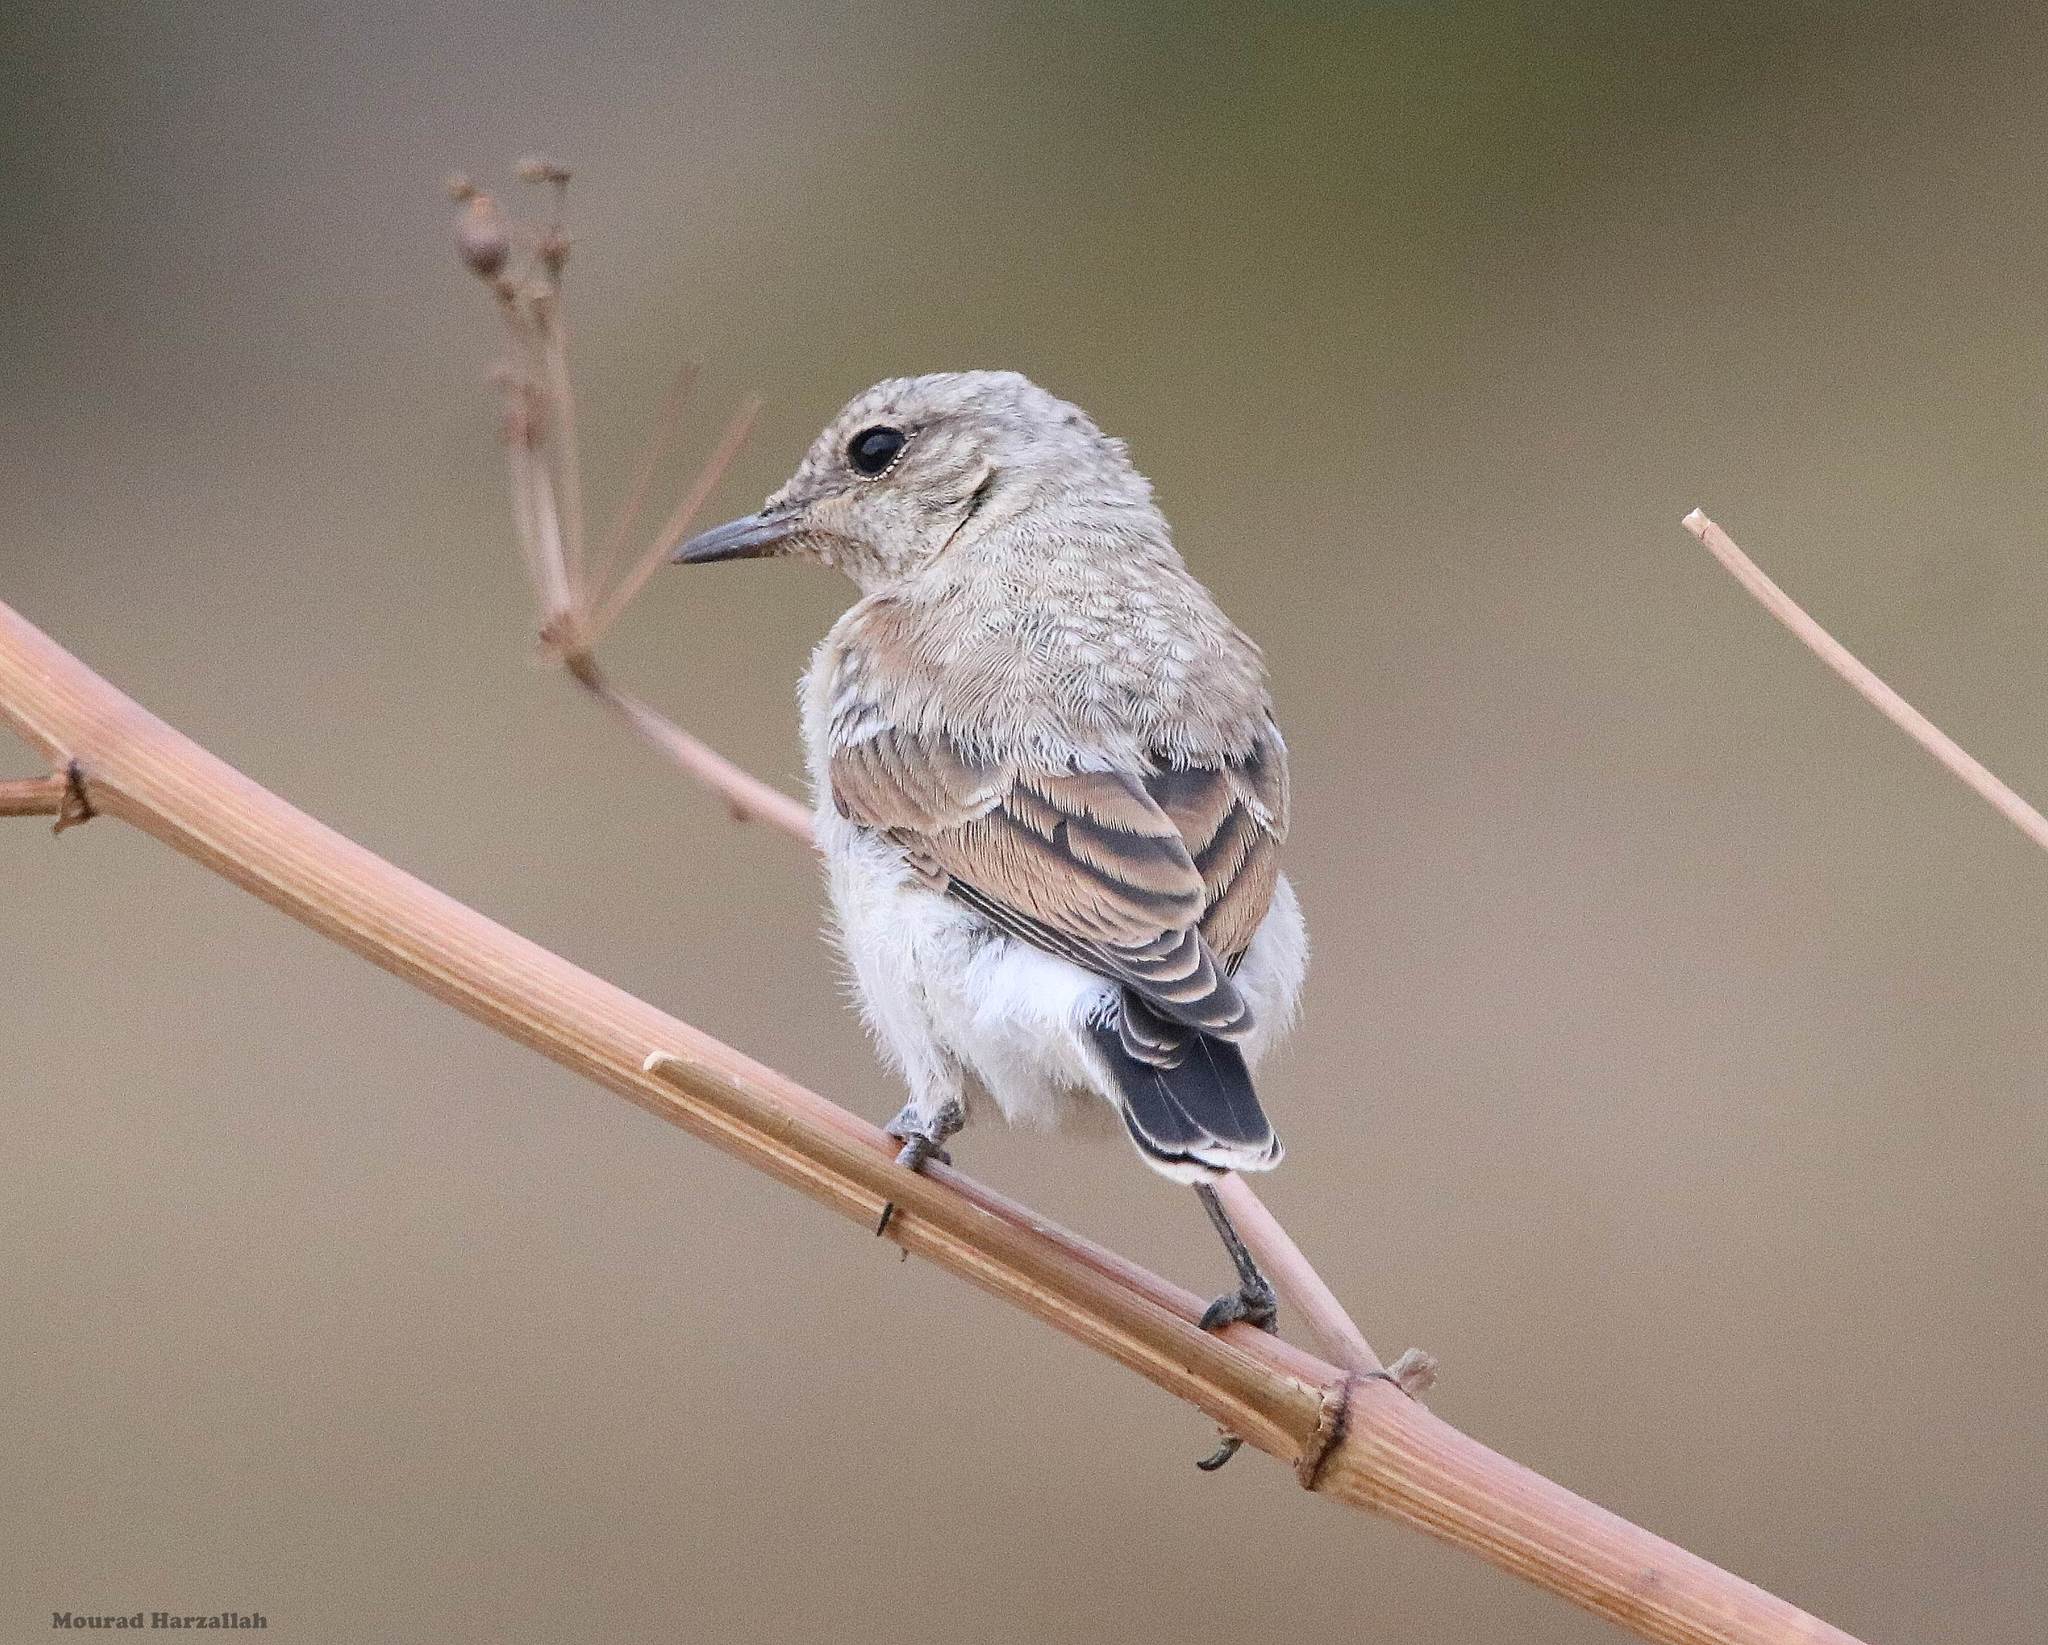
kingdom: Animalia
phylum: Chordata
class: Aves
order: Passeriformes
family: Muscicapidae
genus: Oenanthe
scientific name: Oenanthe oenanthe
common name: Northern wheatear
